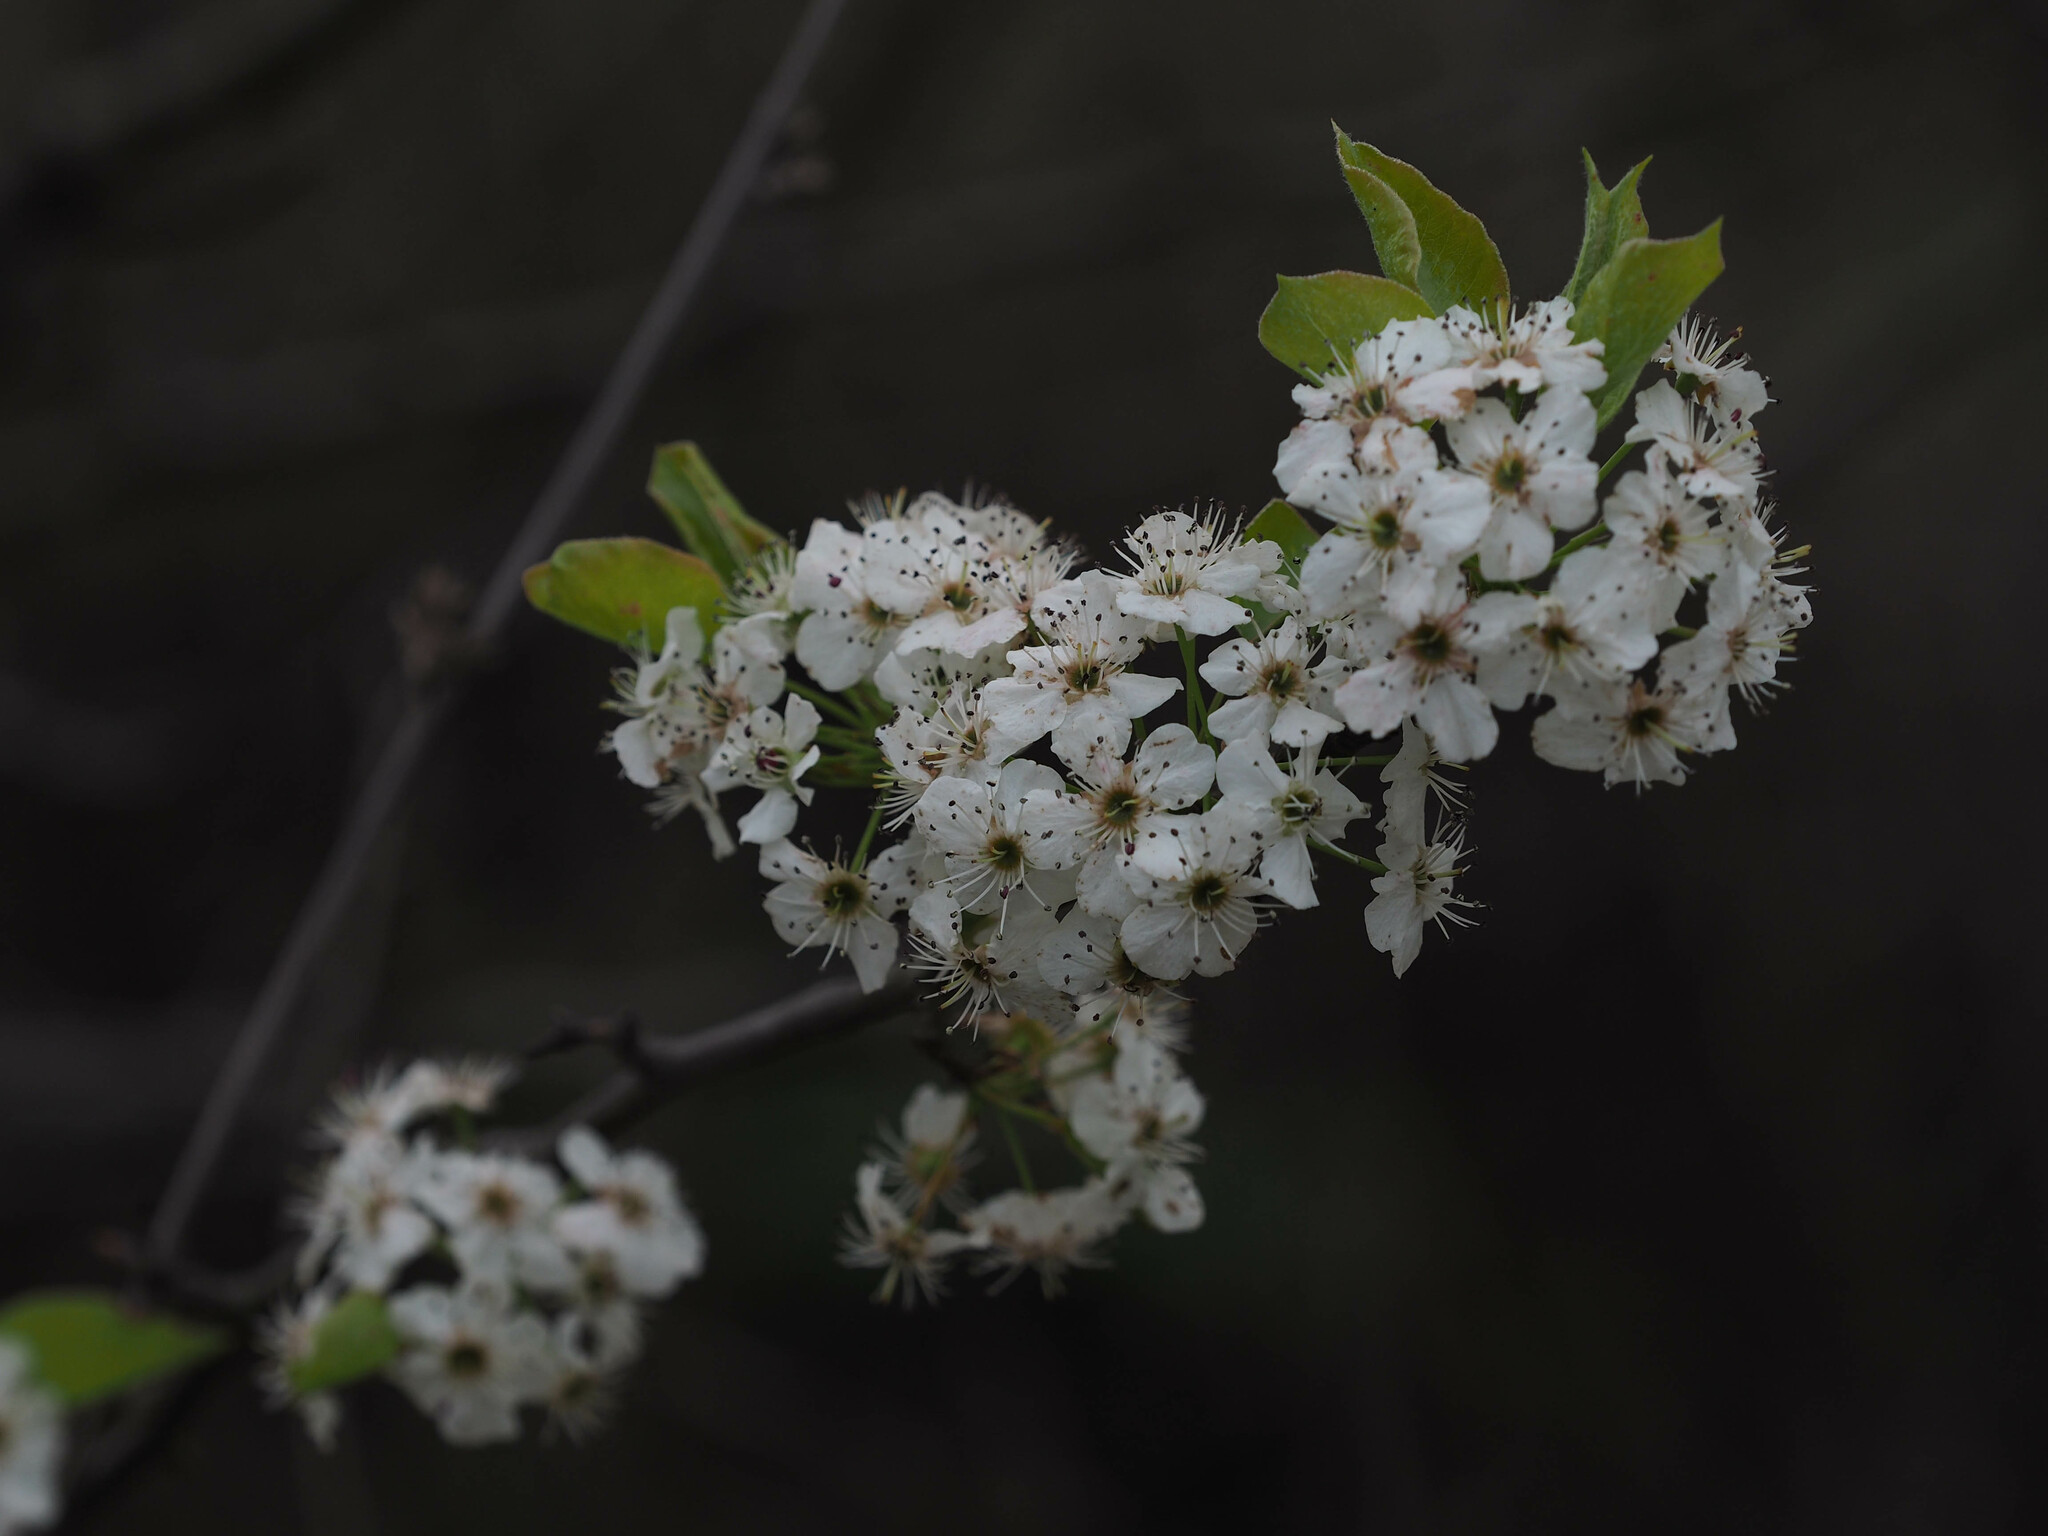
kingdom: Plantae
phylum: Tracheophyta
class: Magnoliopsida
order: Rosales
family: Rosaceae
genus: Pyrus
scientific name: Pyrus calleryana
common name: Callery pear
